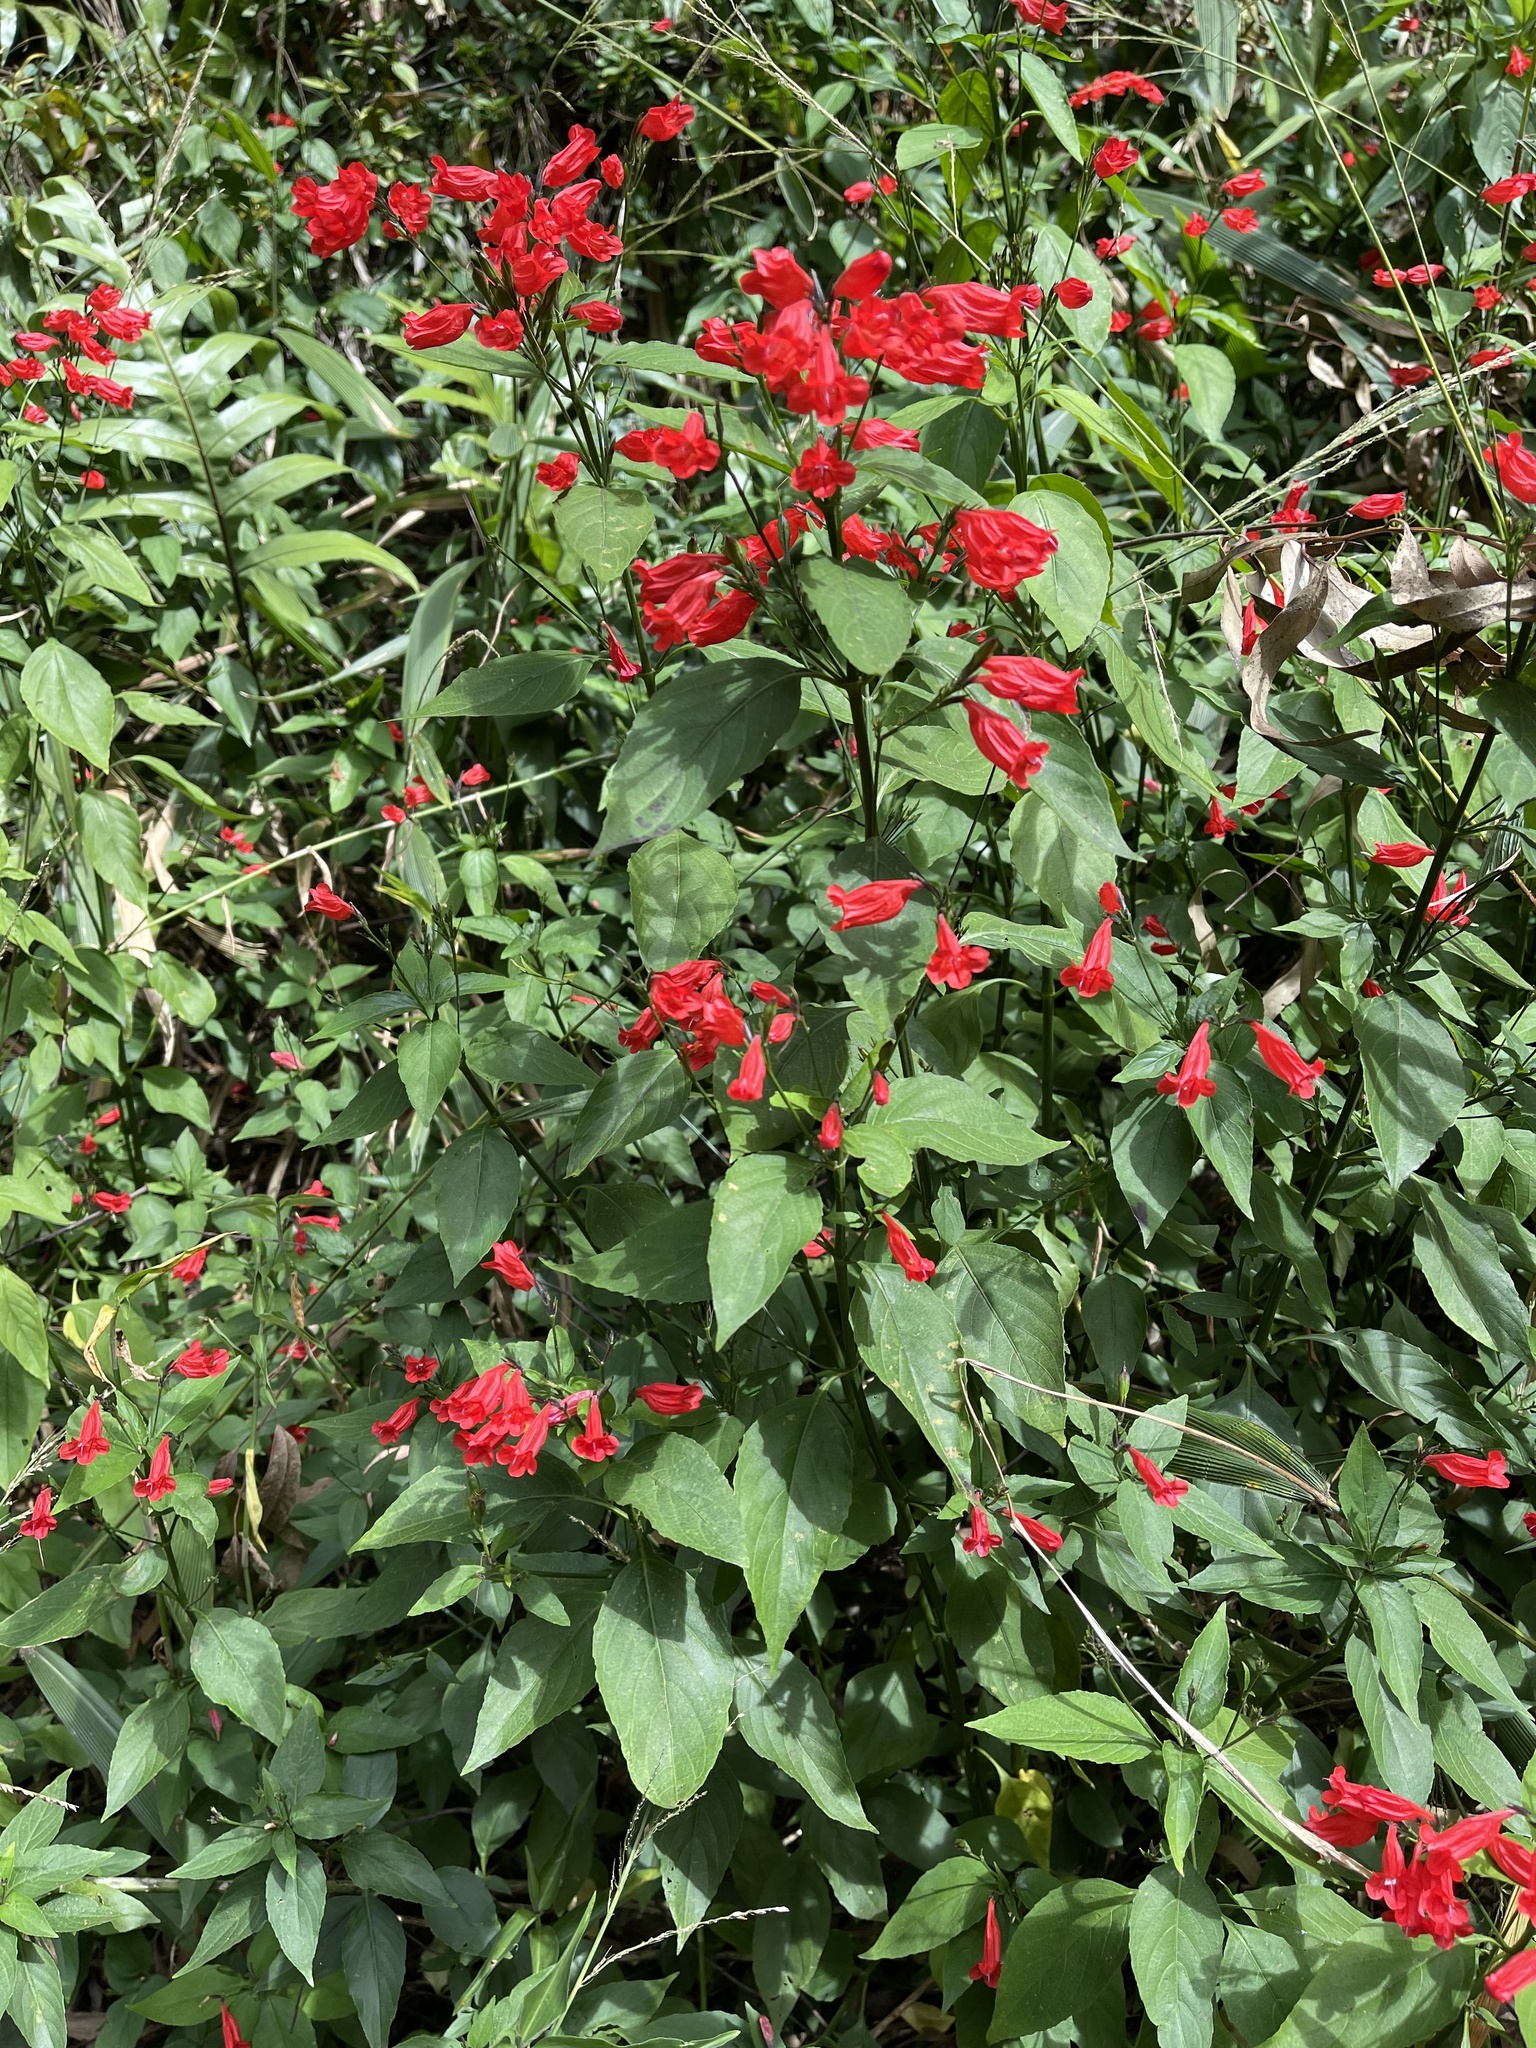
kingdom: Plantae
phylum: Tracheophyta
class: Magnoliopsida
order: Lamiales
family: Acanthaceae
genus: Ruellia
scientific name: Ruellia brevifolia
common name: Tropical wild petunia
